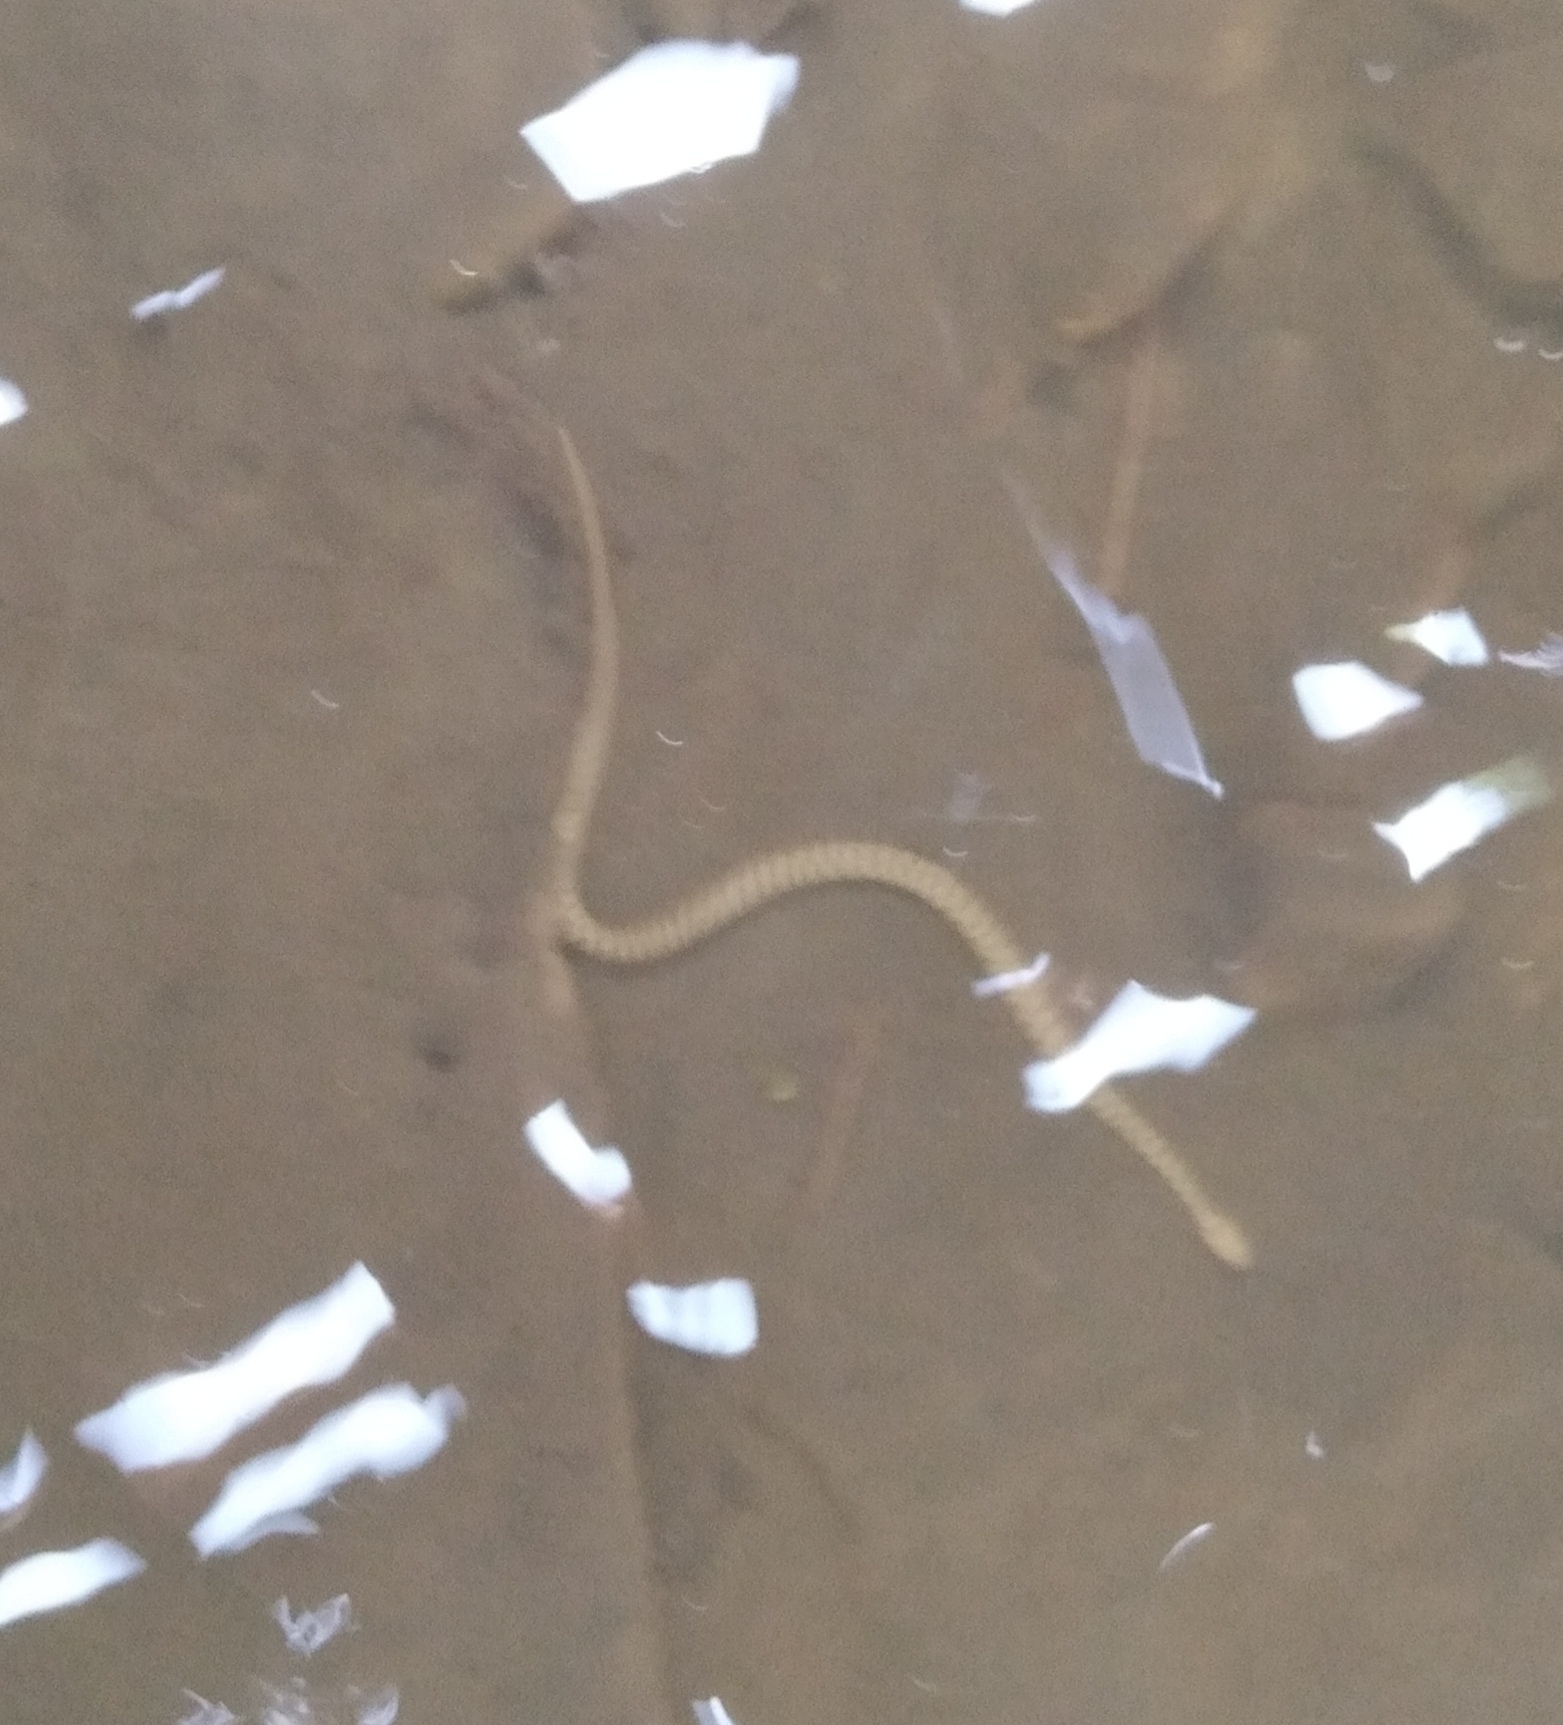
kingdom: Animalia
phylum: Chordata
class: Squamata
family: Colubridae
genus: Natrix
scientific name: Natrix tessellata
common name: Dice snake
